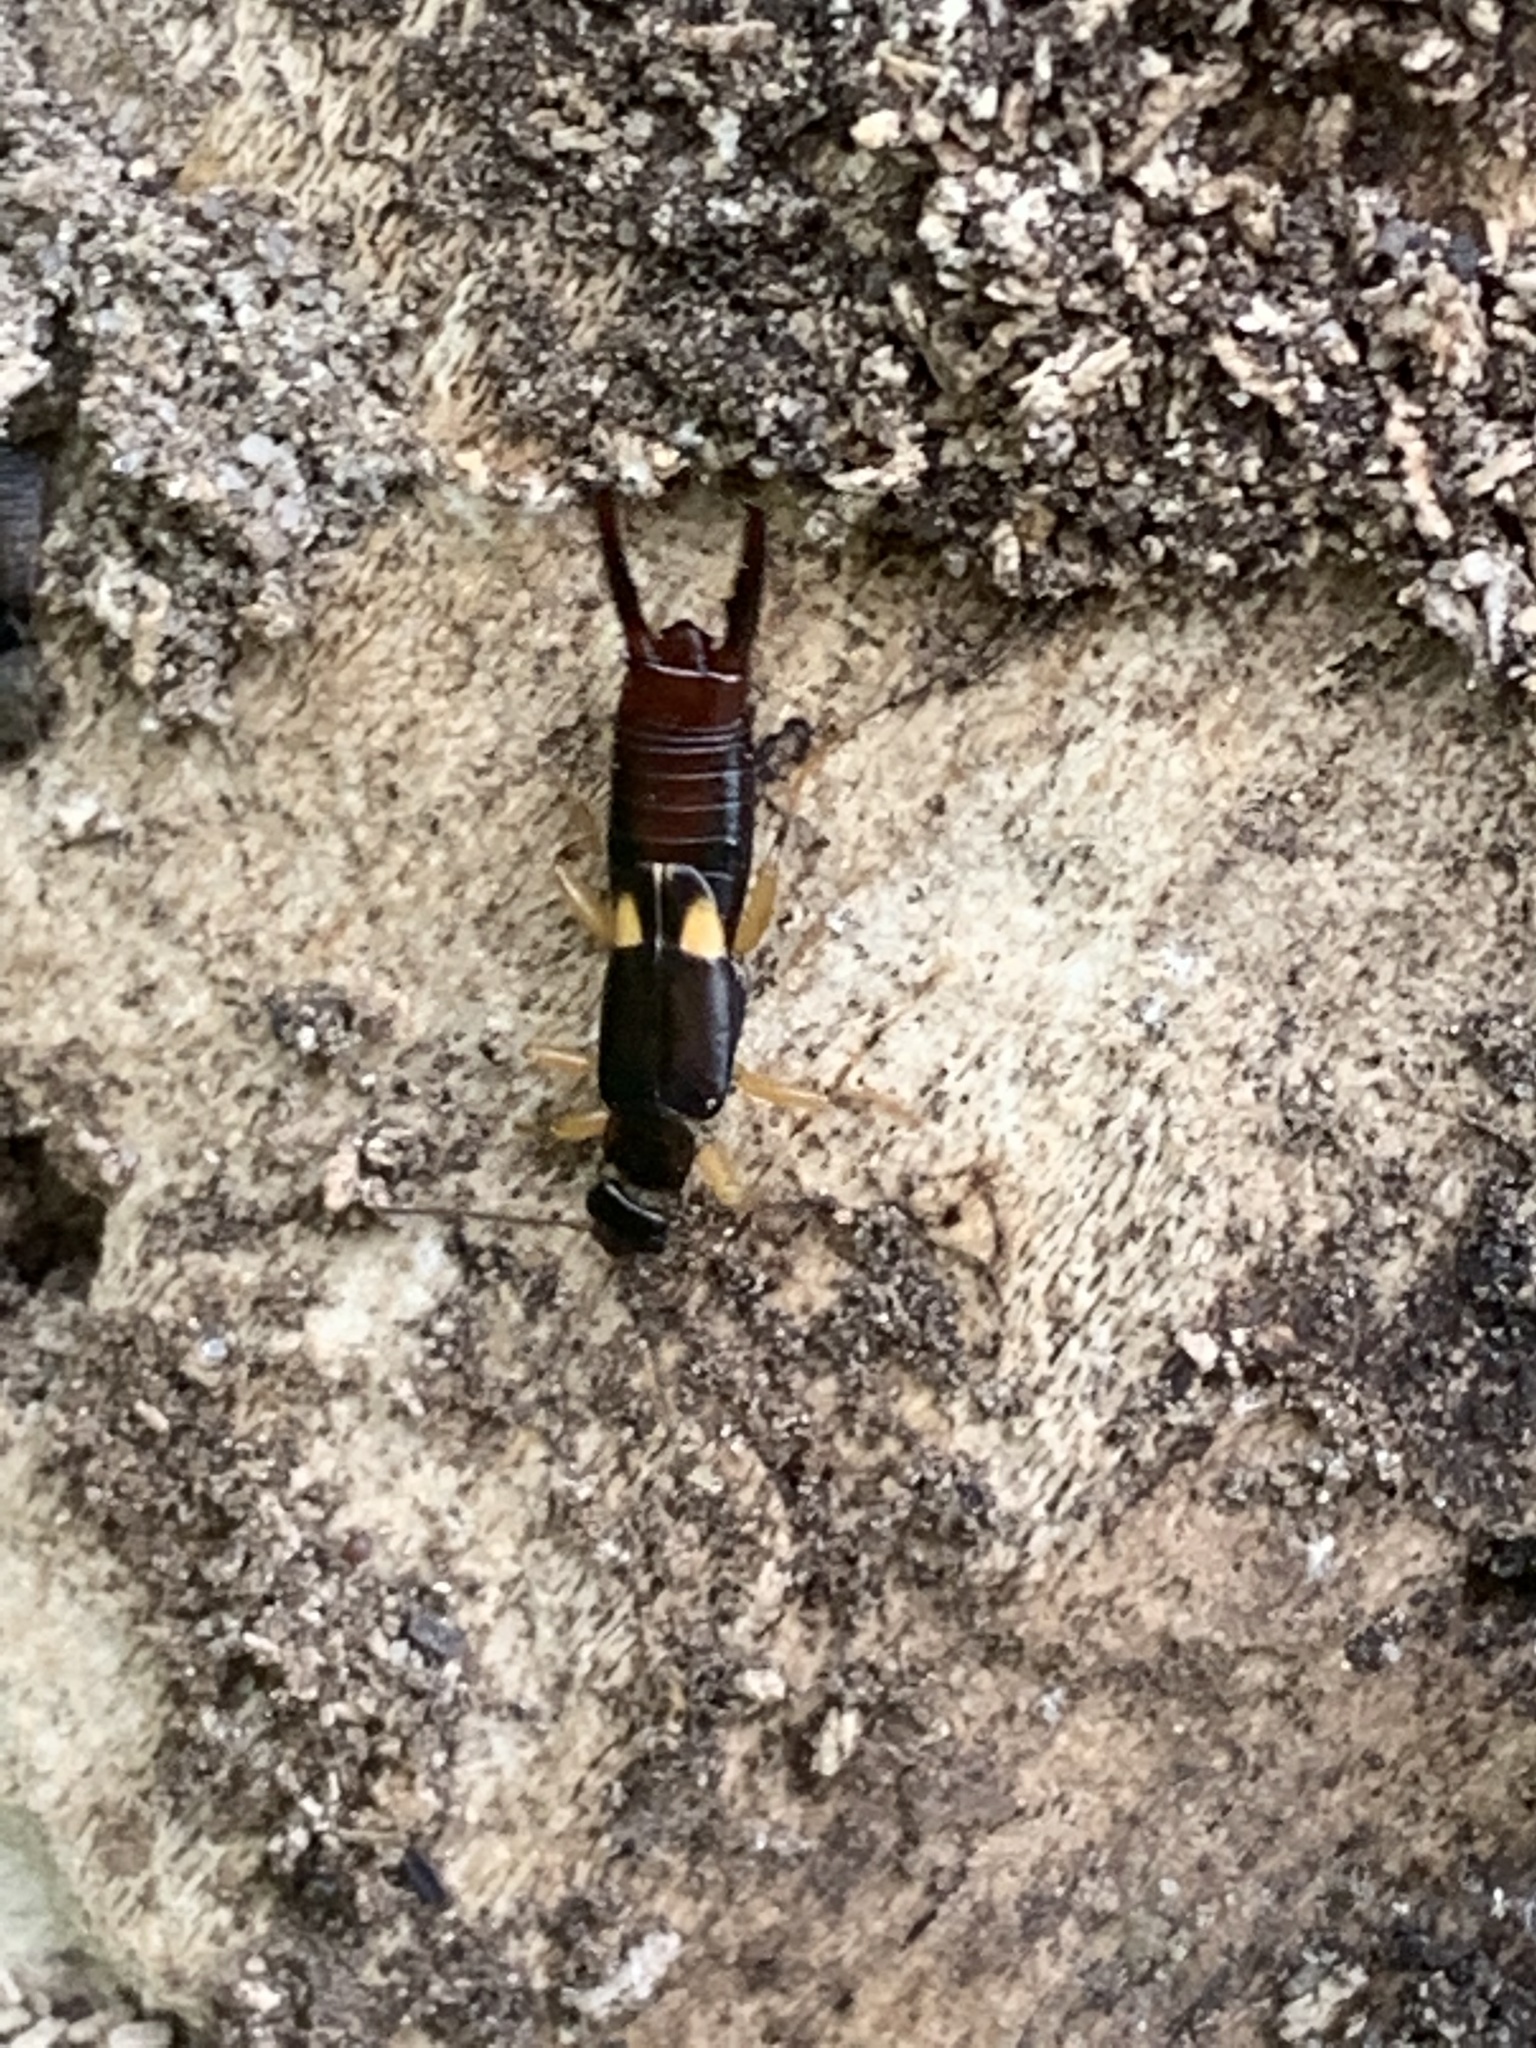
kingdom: Animalia
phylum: Arthropoda
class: Insecta
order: Dermaptera
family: Spongiphoridae
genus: Vostox
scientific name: Vostox brunneipennis
